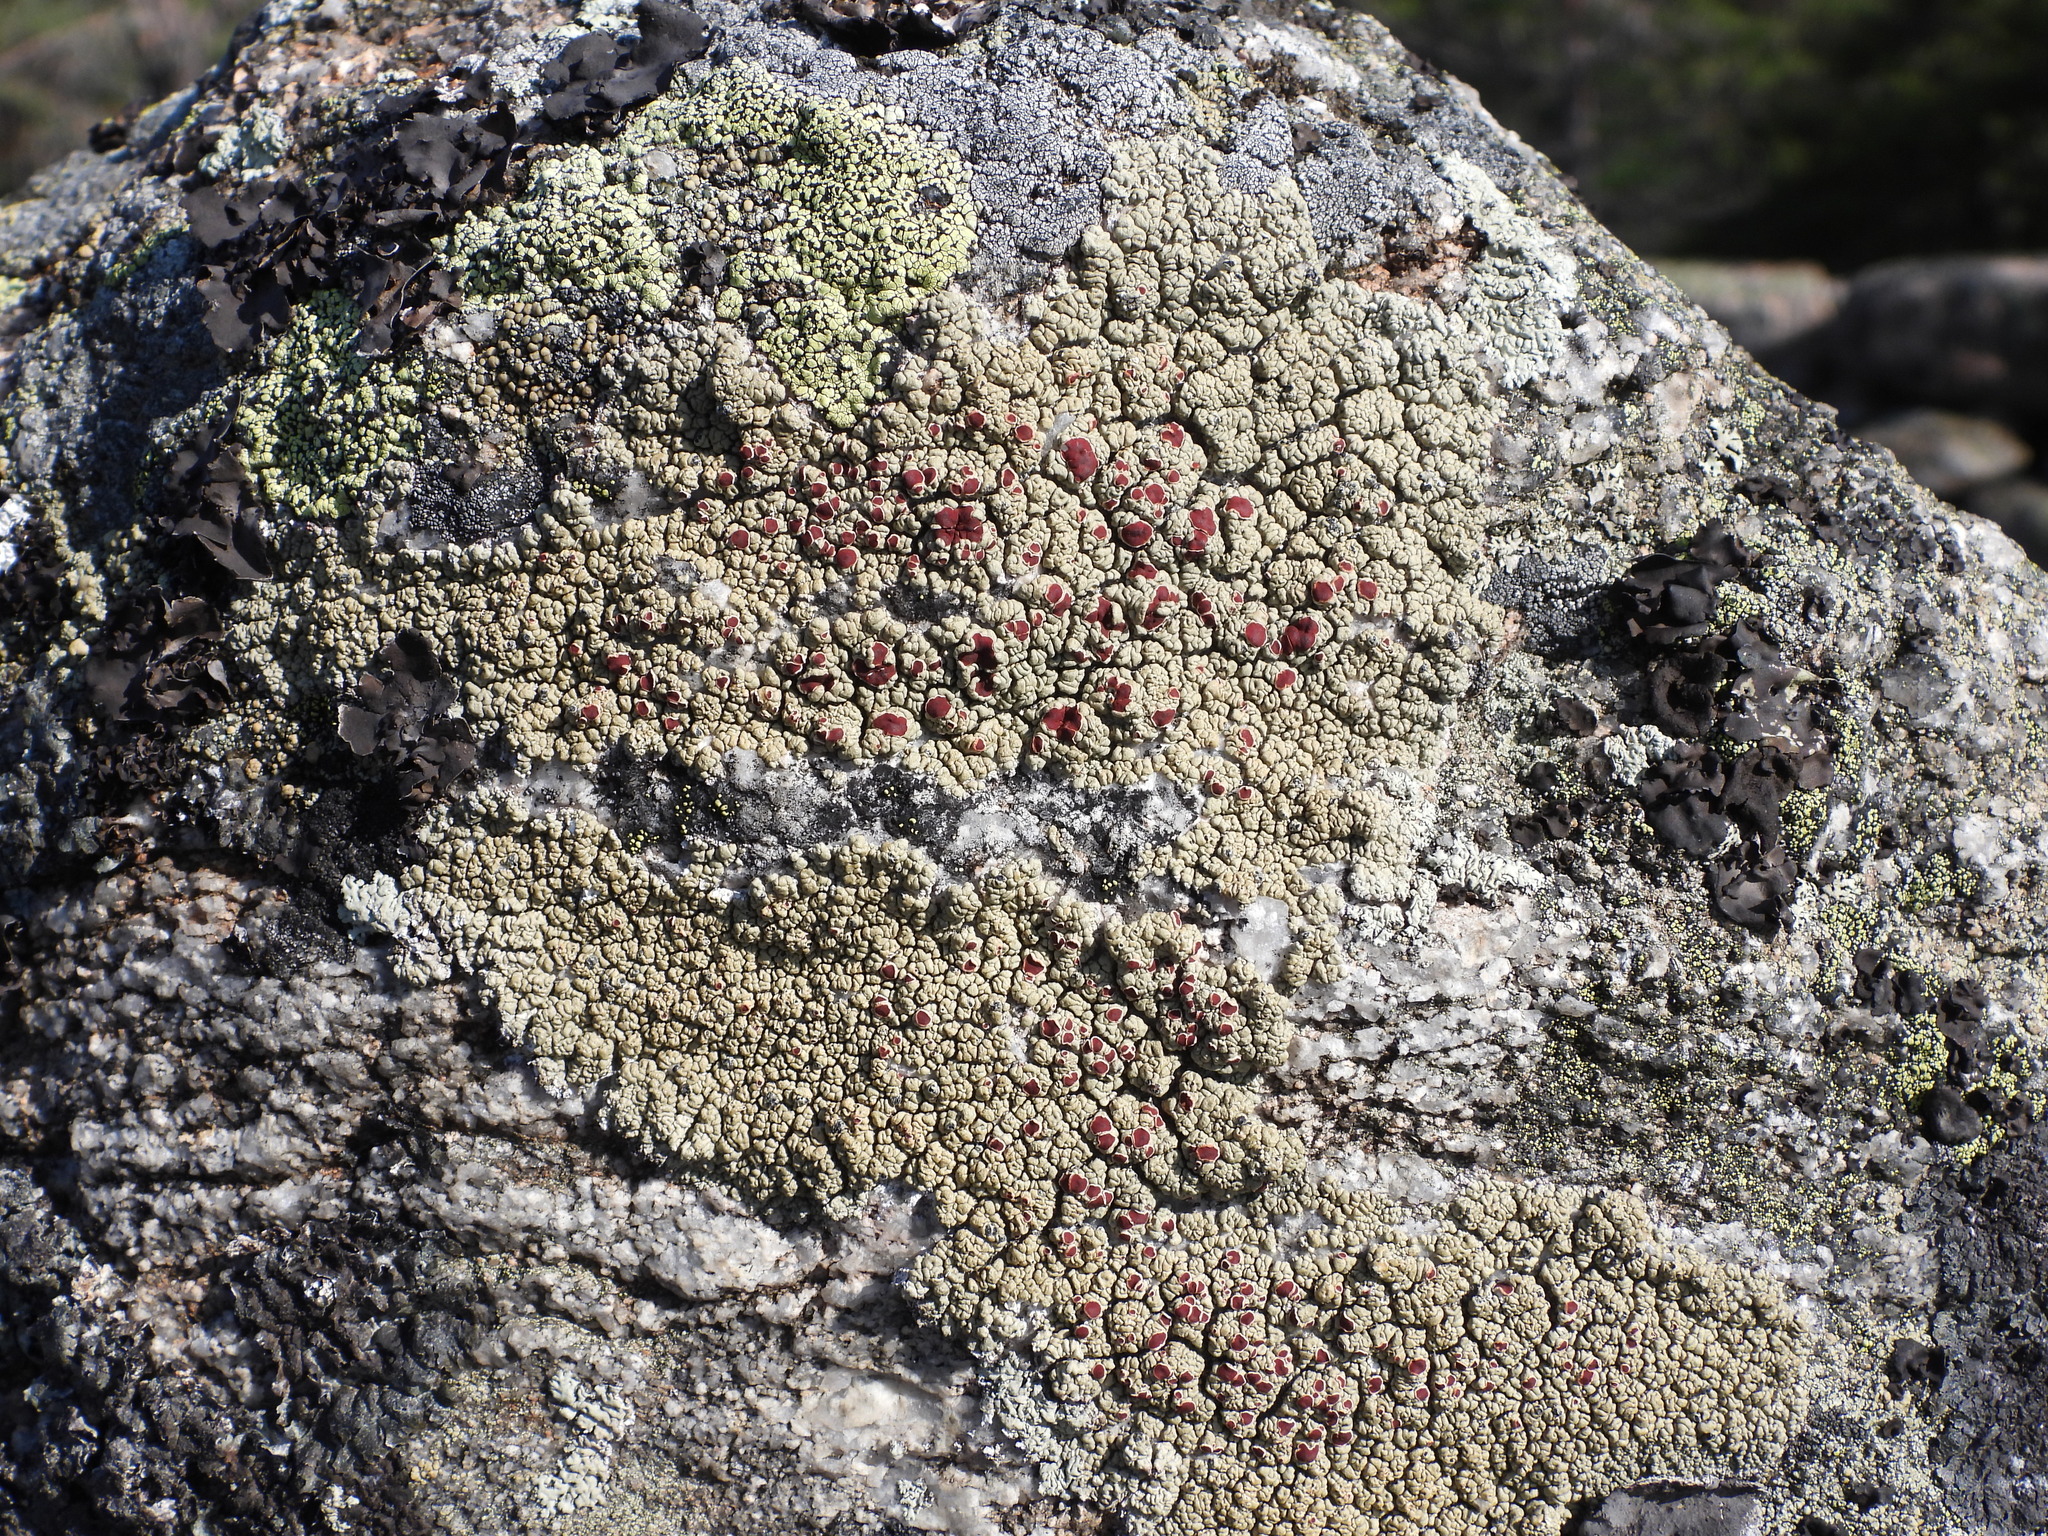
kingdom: Fungi
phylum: Ascomycota
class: Lecanoromycetes
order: Umbilicariales
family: Ophioparmaceae
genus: Ophioparma
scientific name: Ophioparma ventosa
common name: Blood-spot
